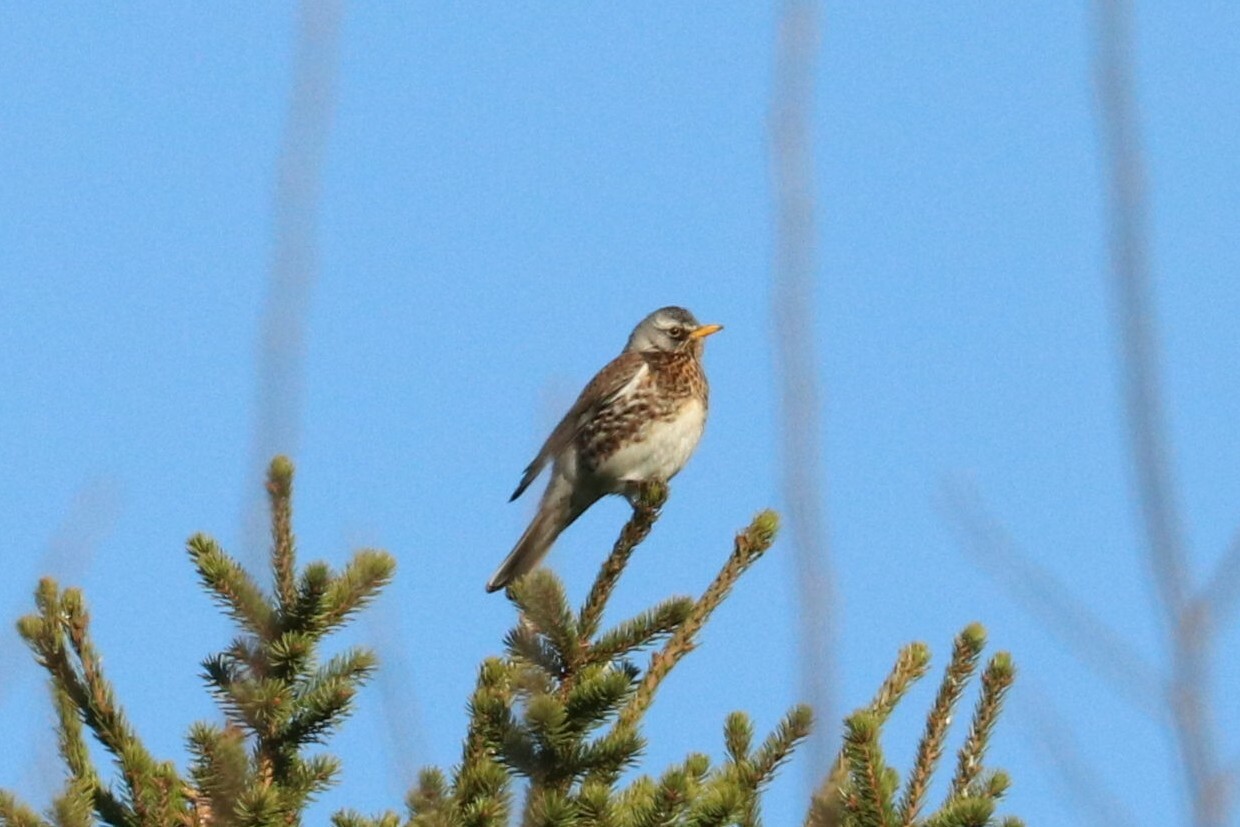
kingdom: Animalia
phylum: Chordata
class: Aves
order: Passeriformes
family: Turdidae
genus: Turdus
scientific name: Turdus pilaris
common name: Fieldfare
